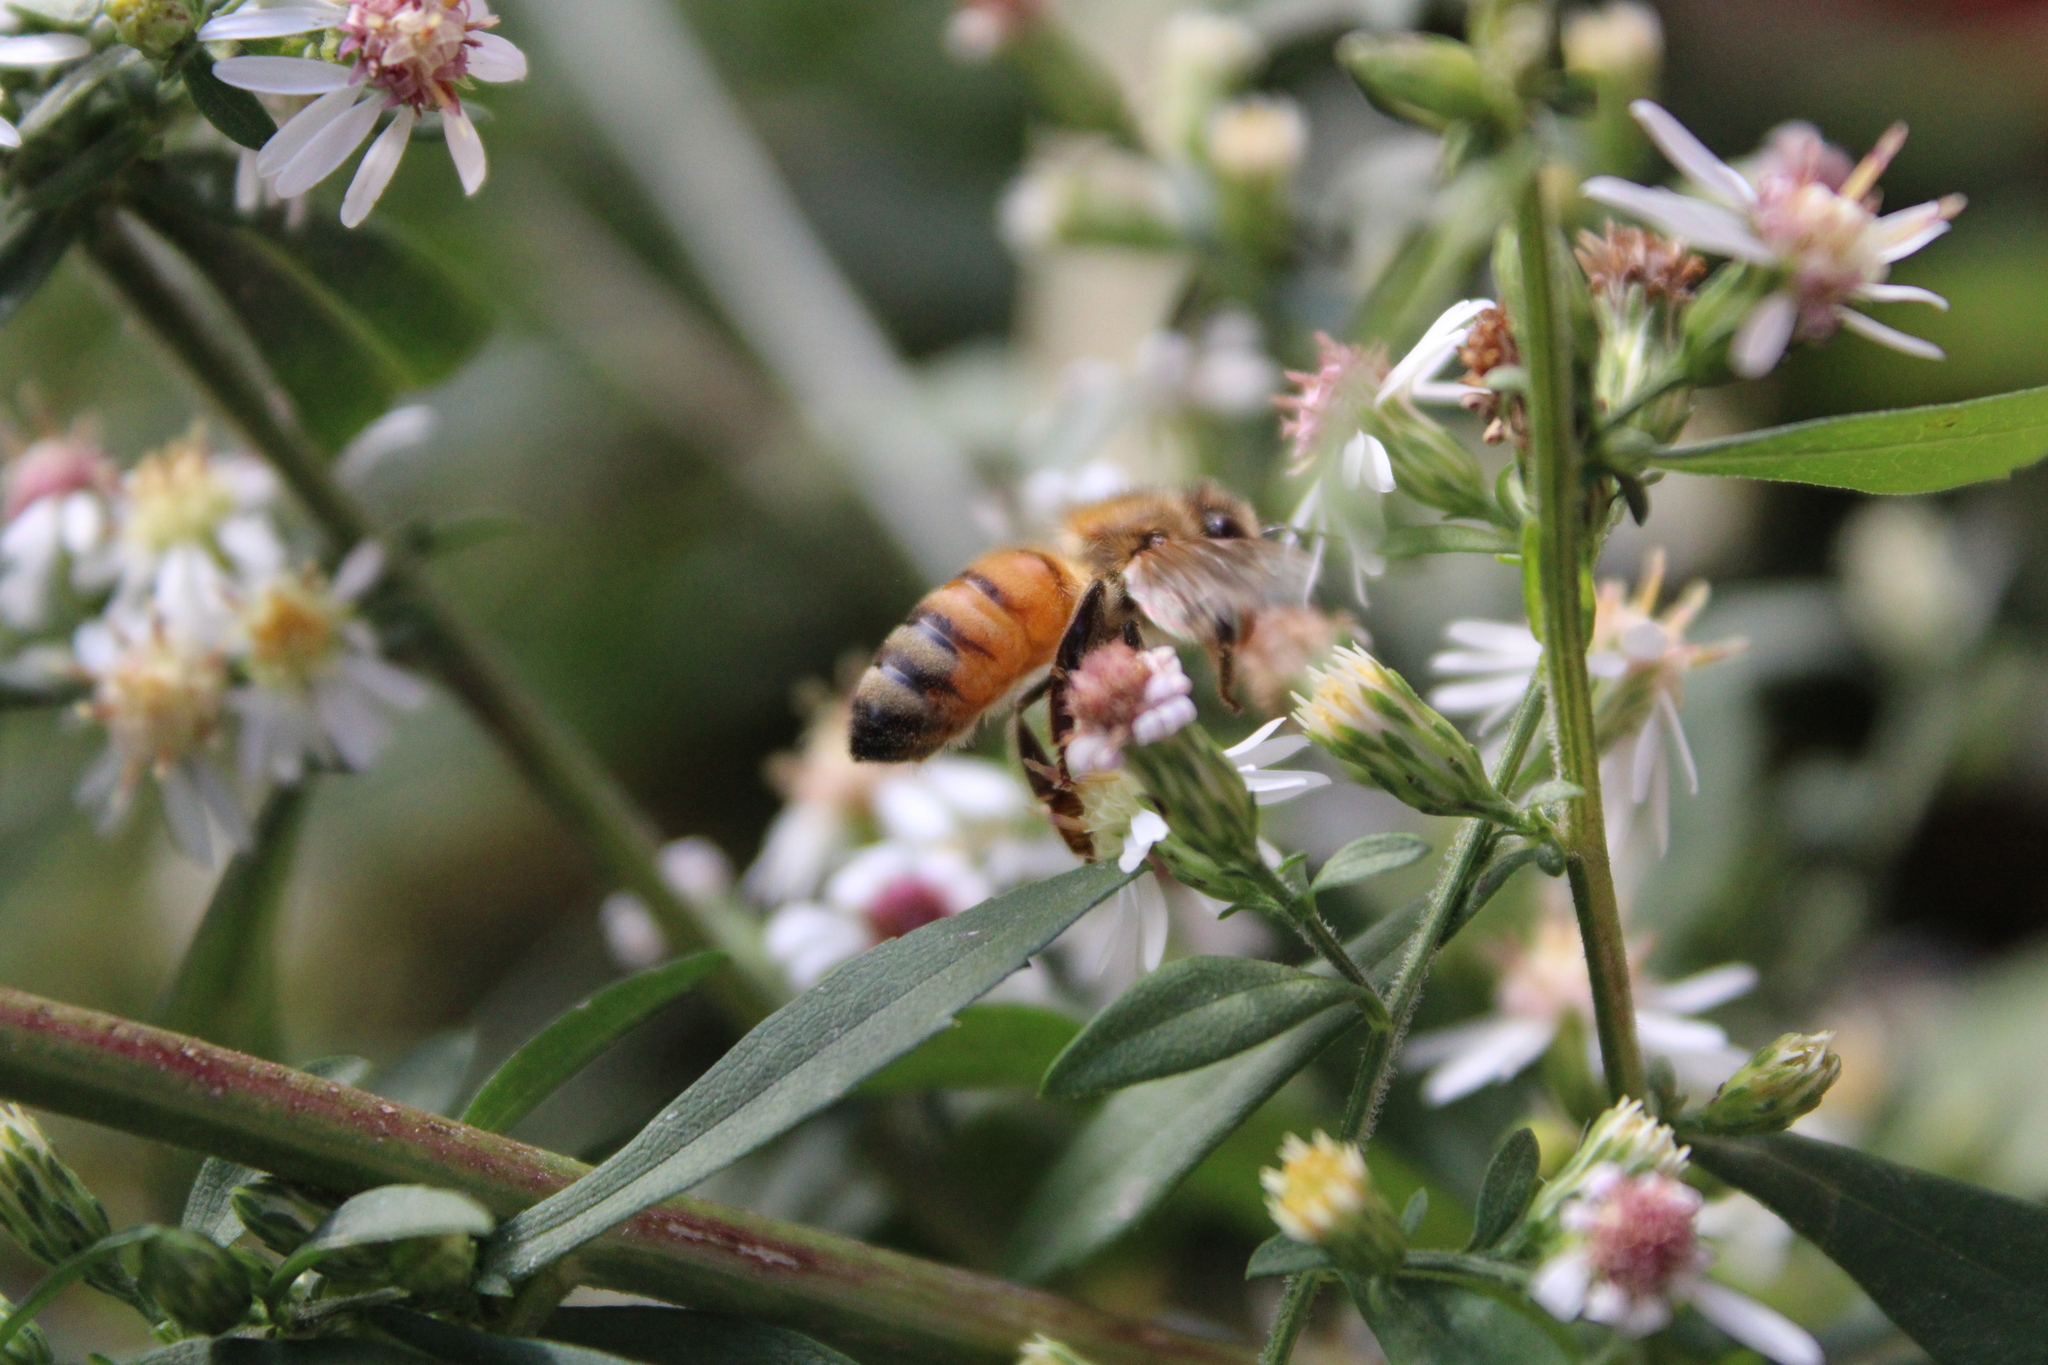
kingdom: Animalia
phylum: Arthropoda
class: Insecta
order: Hymenoptera
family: Apidae
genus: Apis
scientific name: Apis mellifera
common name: Honey bee
